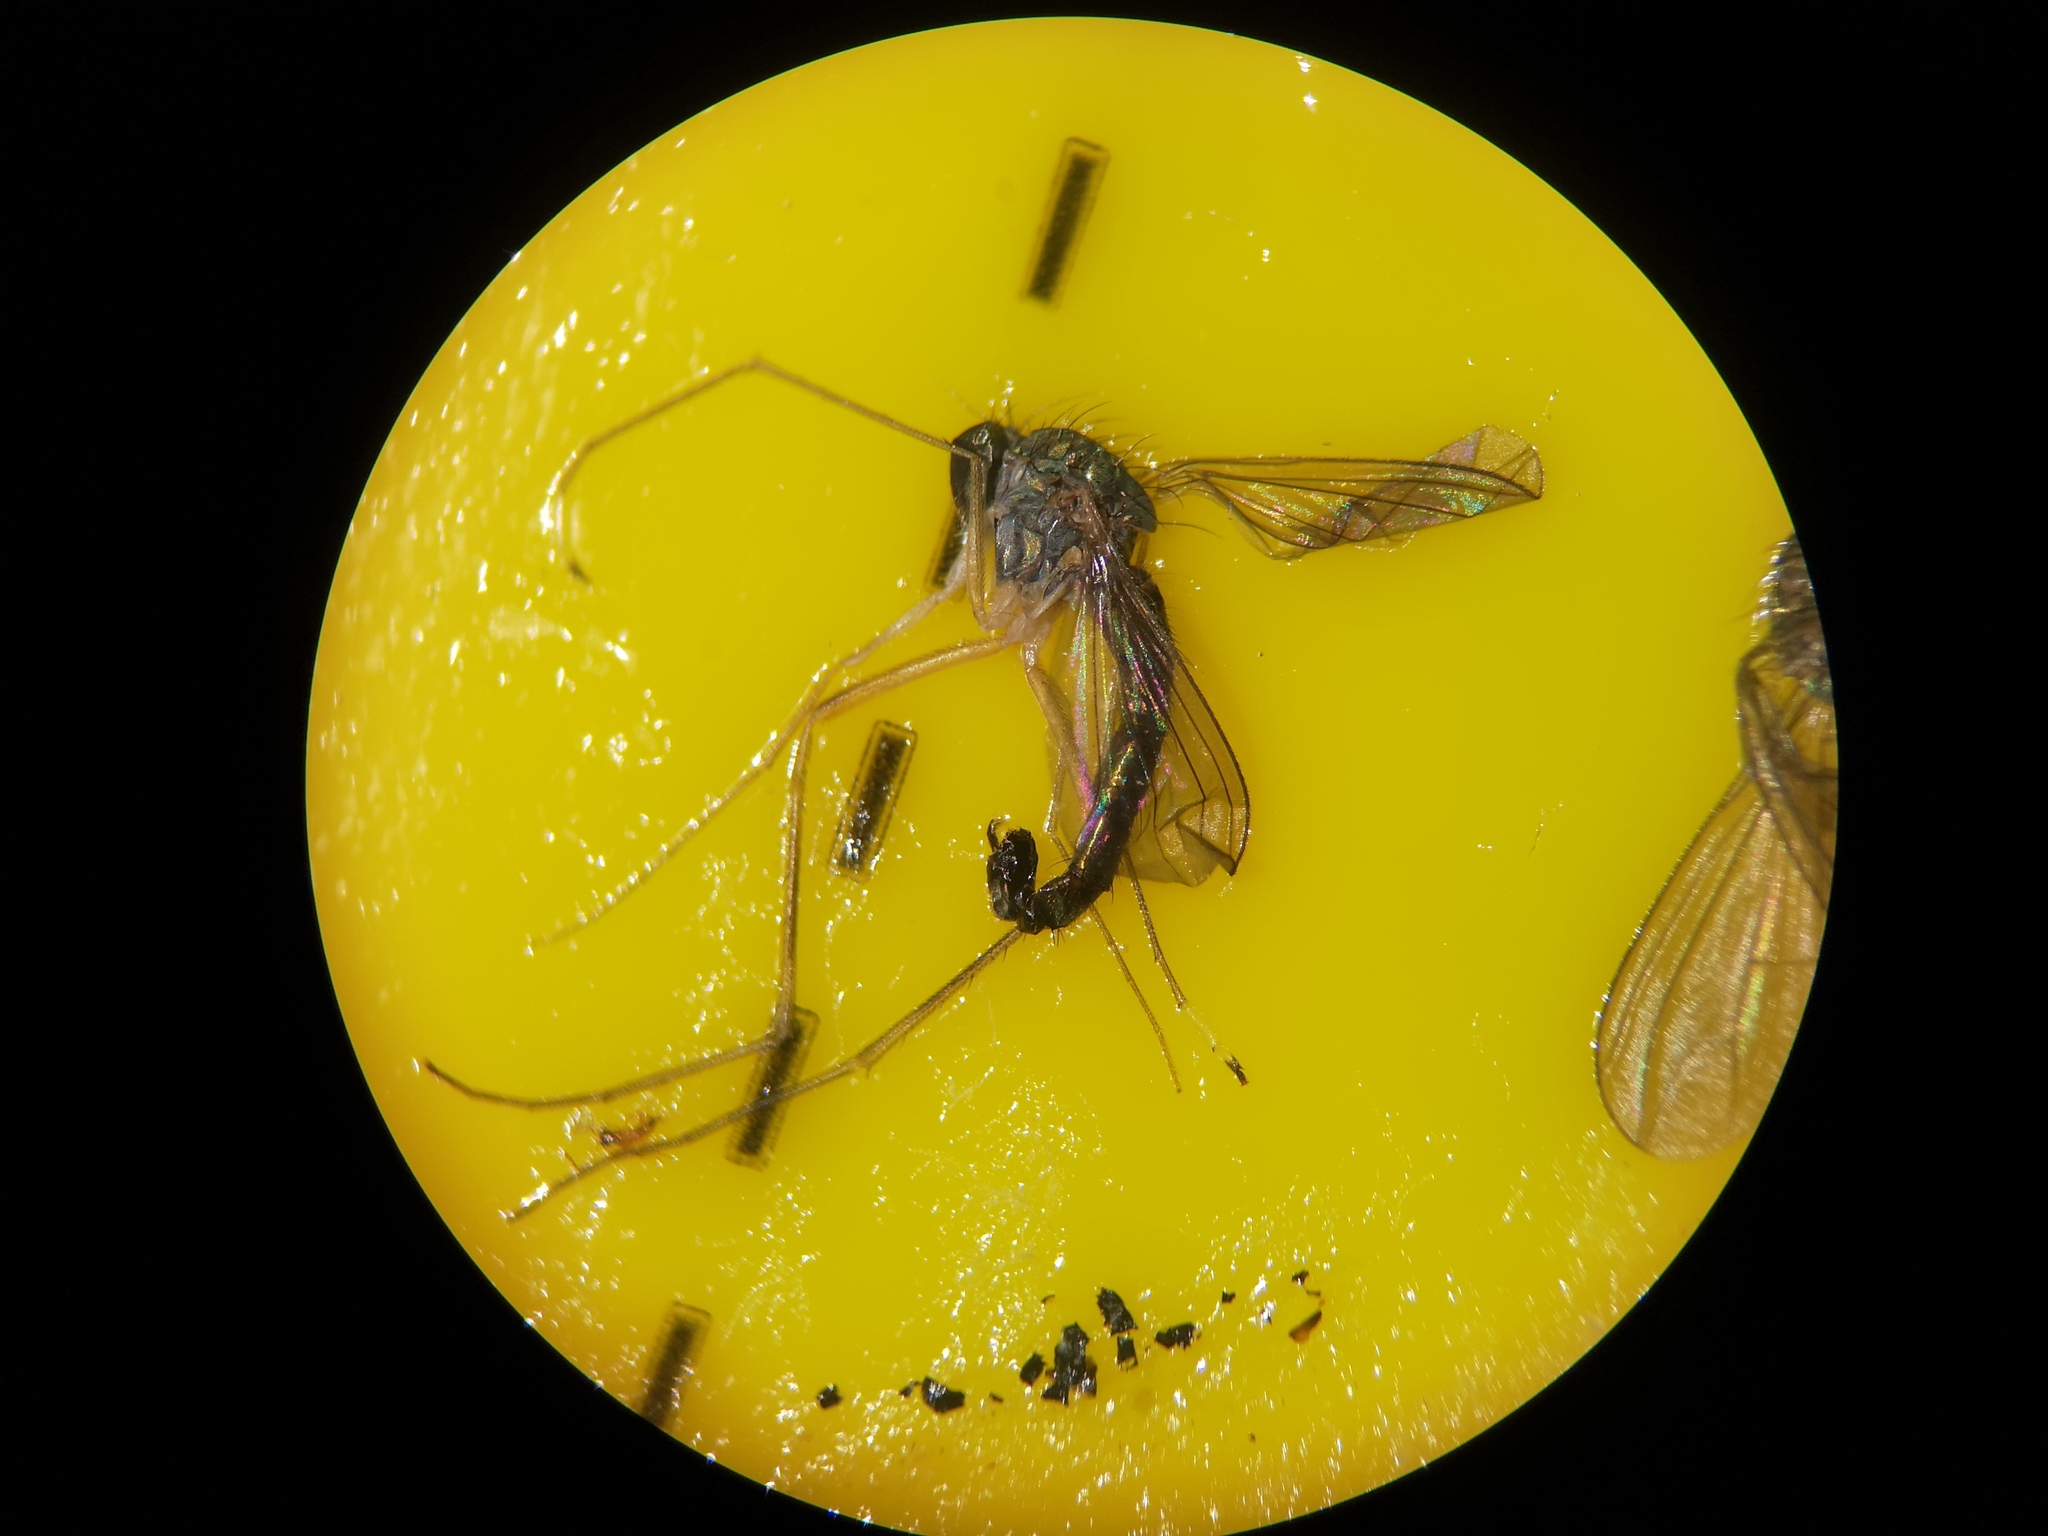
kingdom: Animalia
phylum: Arthropoda
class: Insecta
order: Diptera
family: Dolichopodidae
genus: Sciapus
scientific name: Sciapus platypterus
